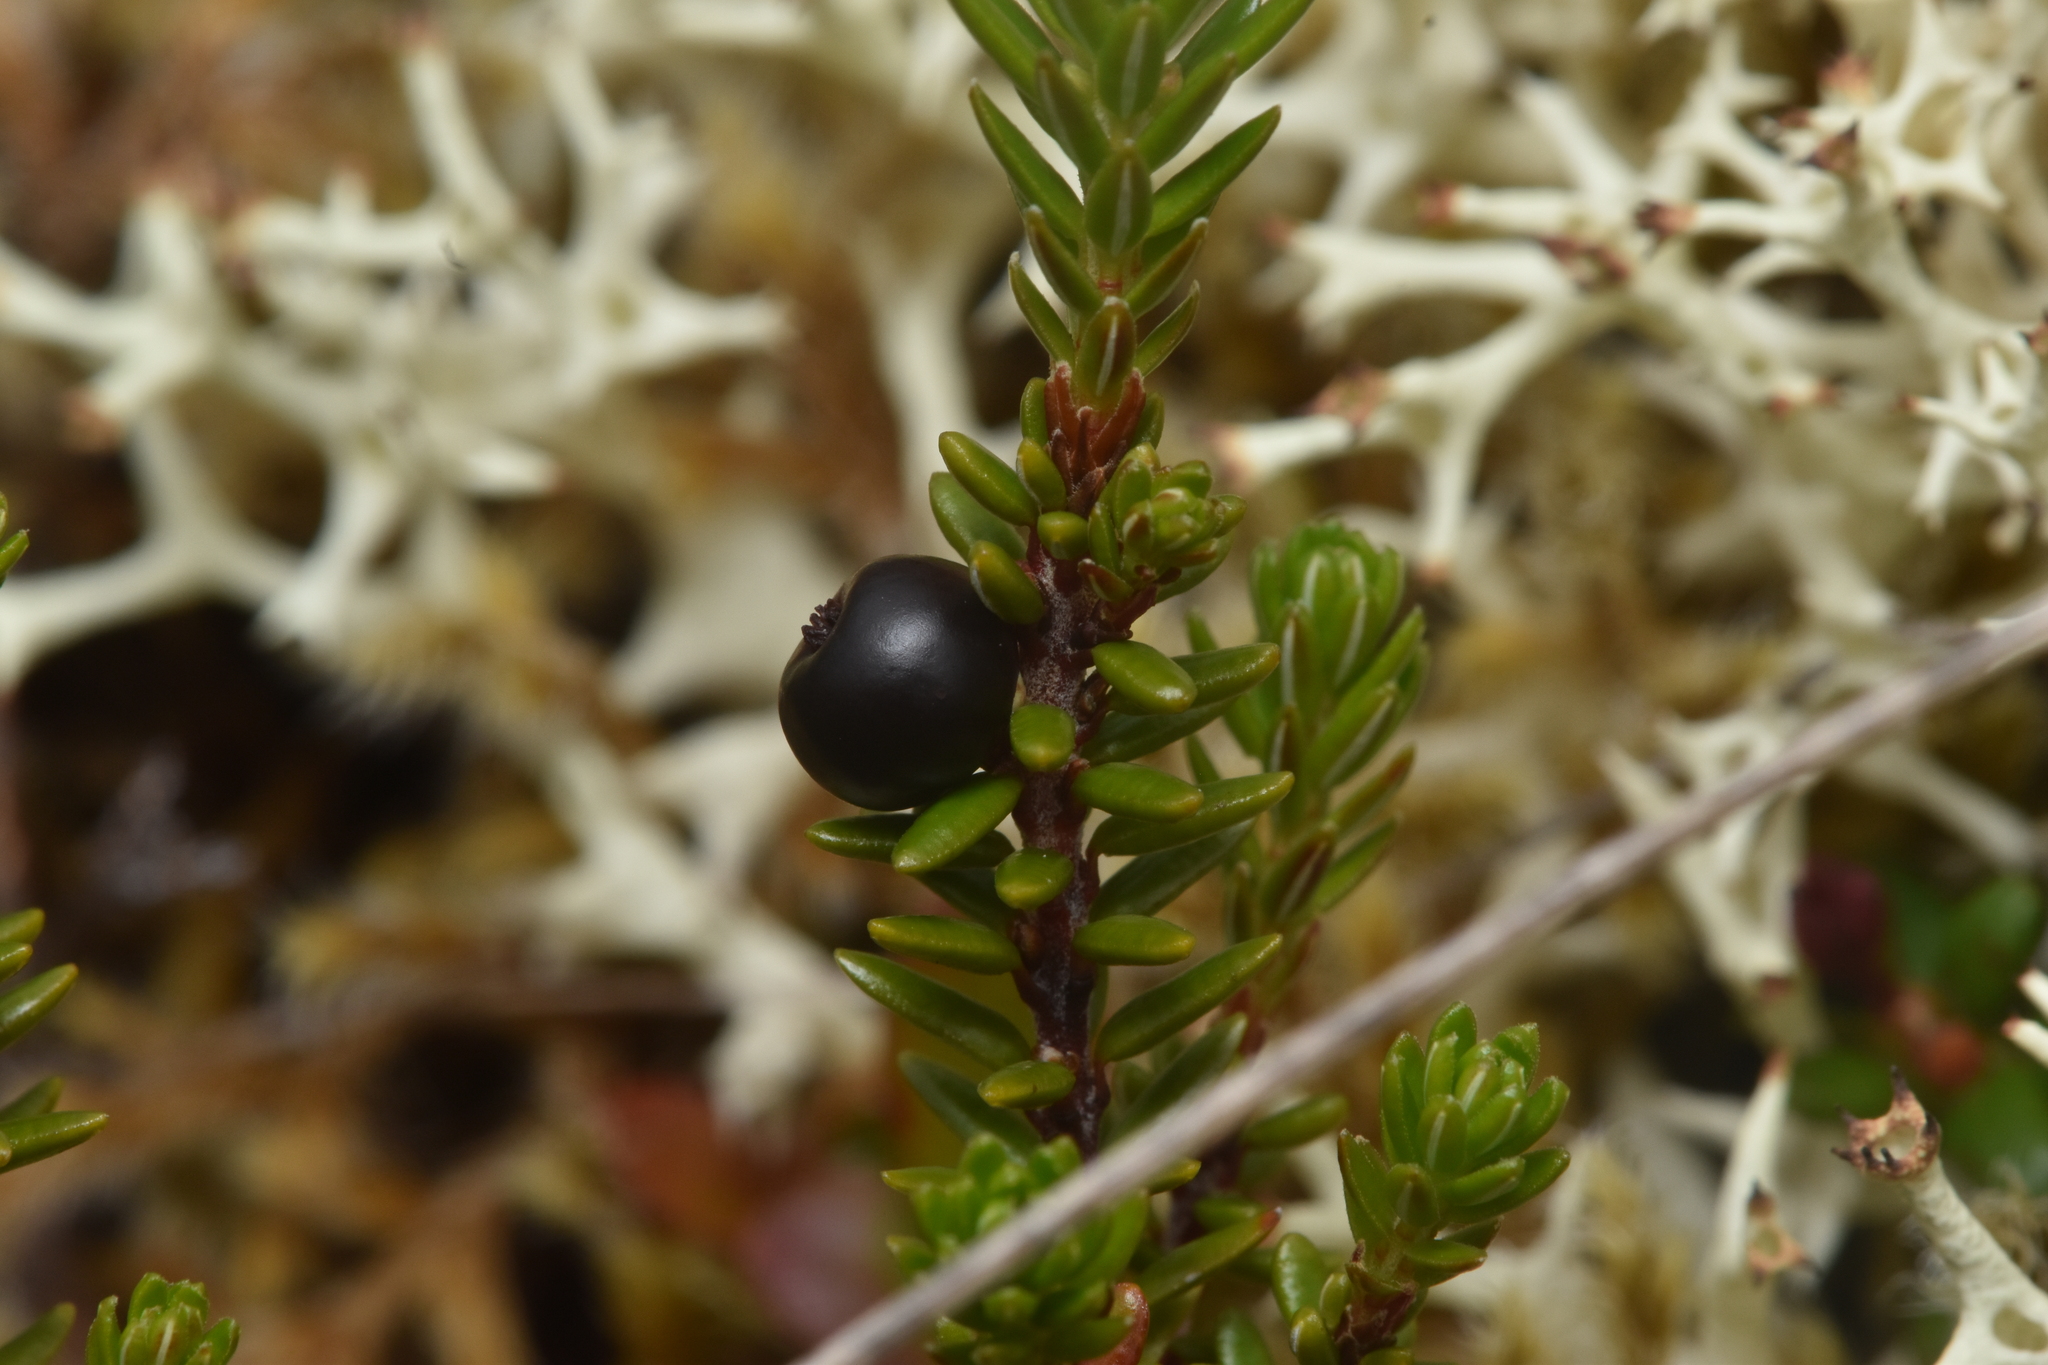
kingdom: Plantae
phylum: Tracheophyta
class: Magnoliopsida
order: Ericales
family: Ericaceae
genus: Empetrum
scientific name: Empetrum nigrum
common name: Black crowberry
